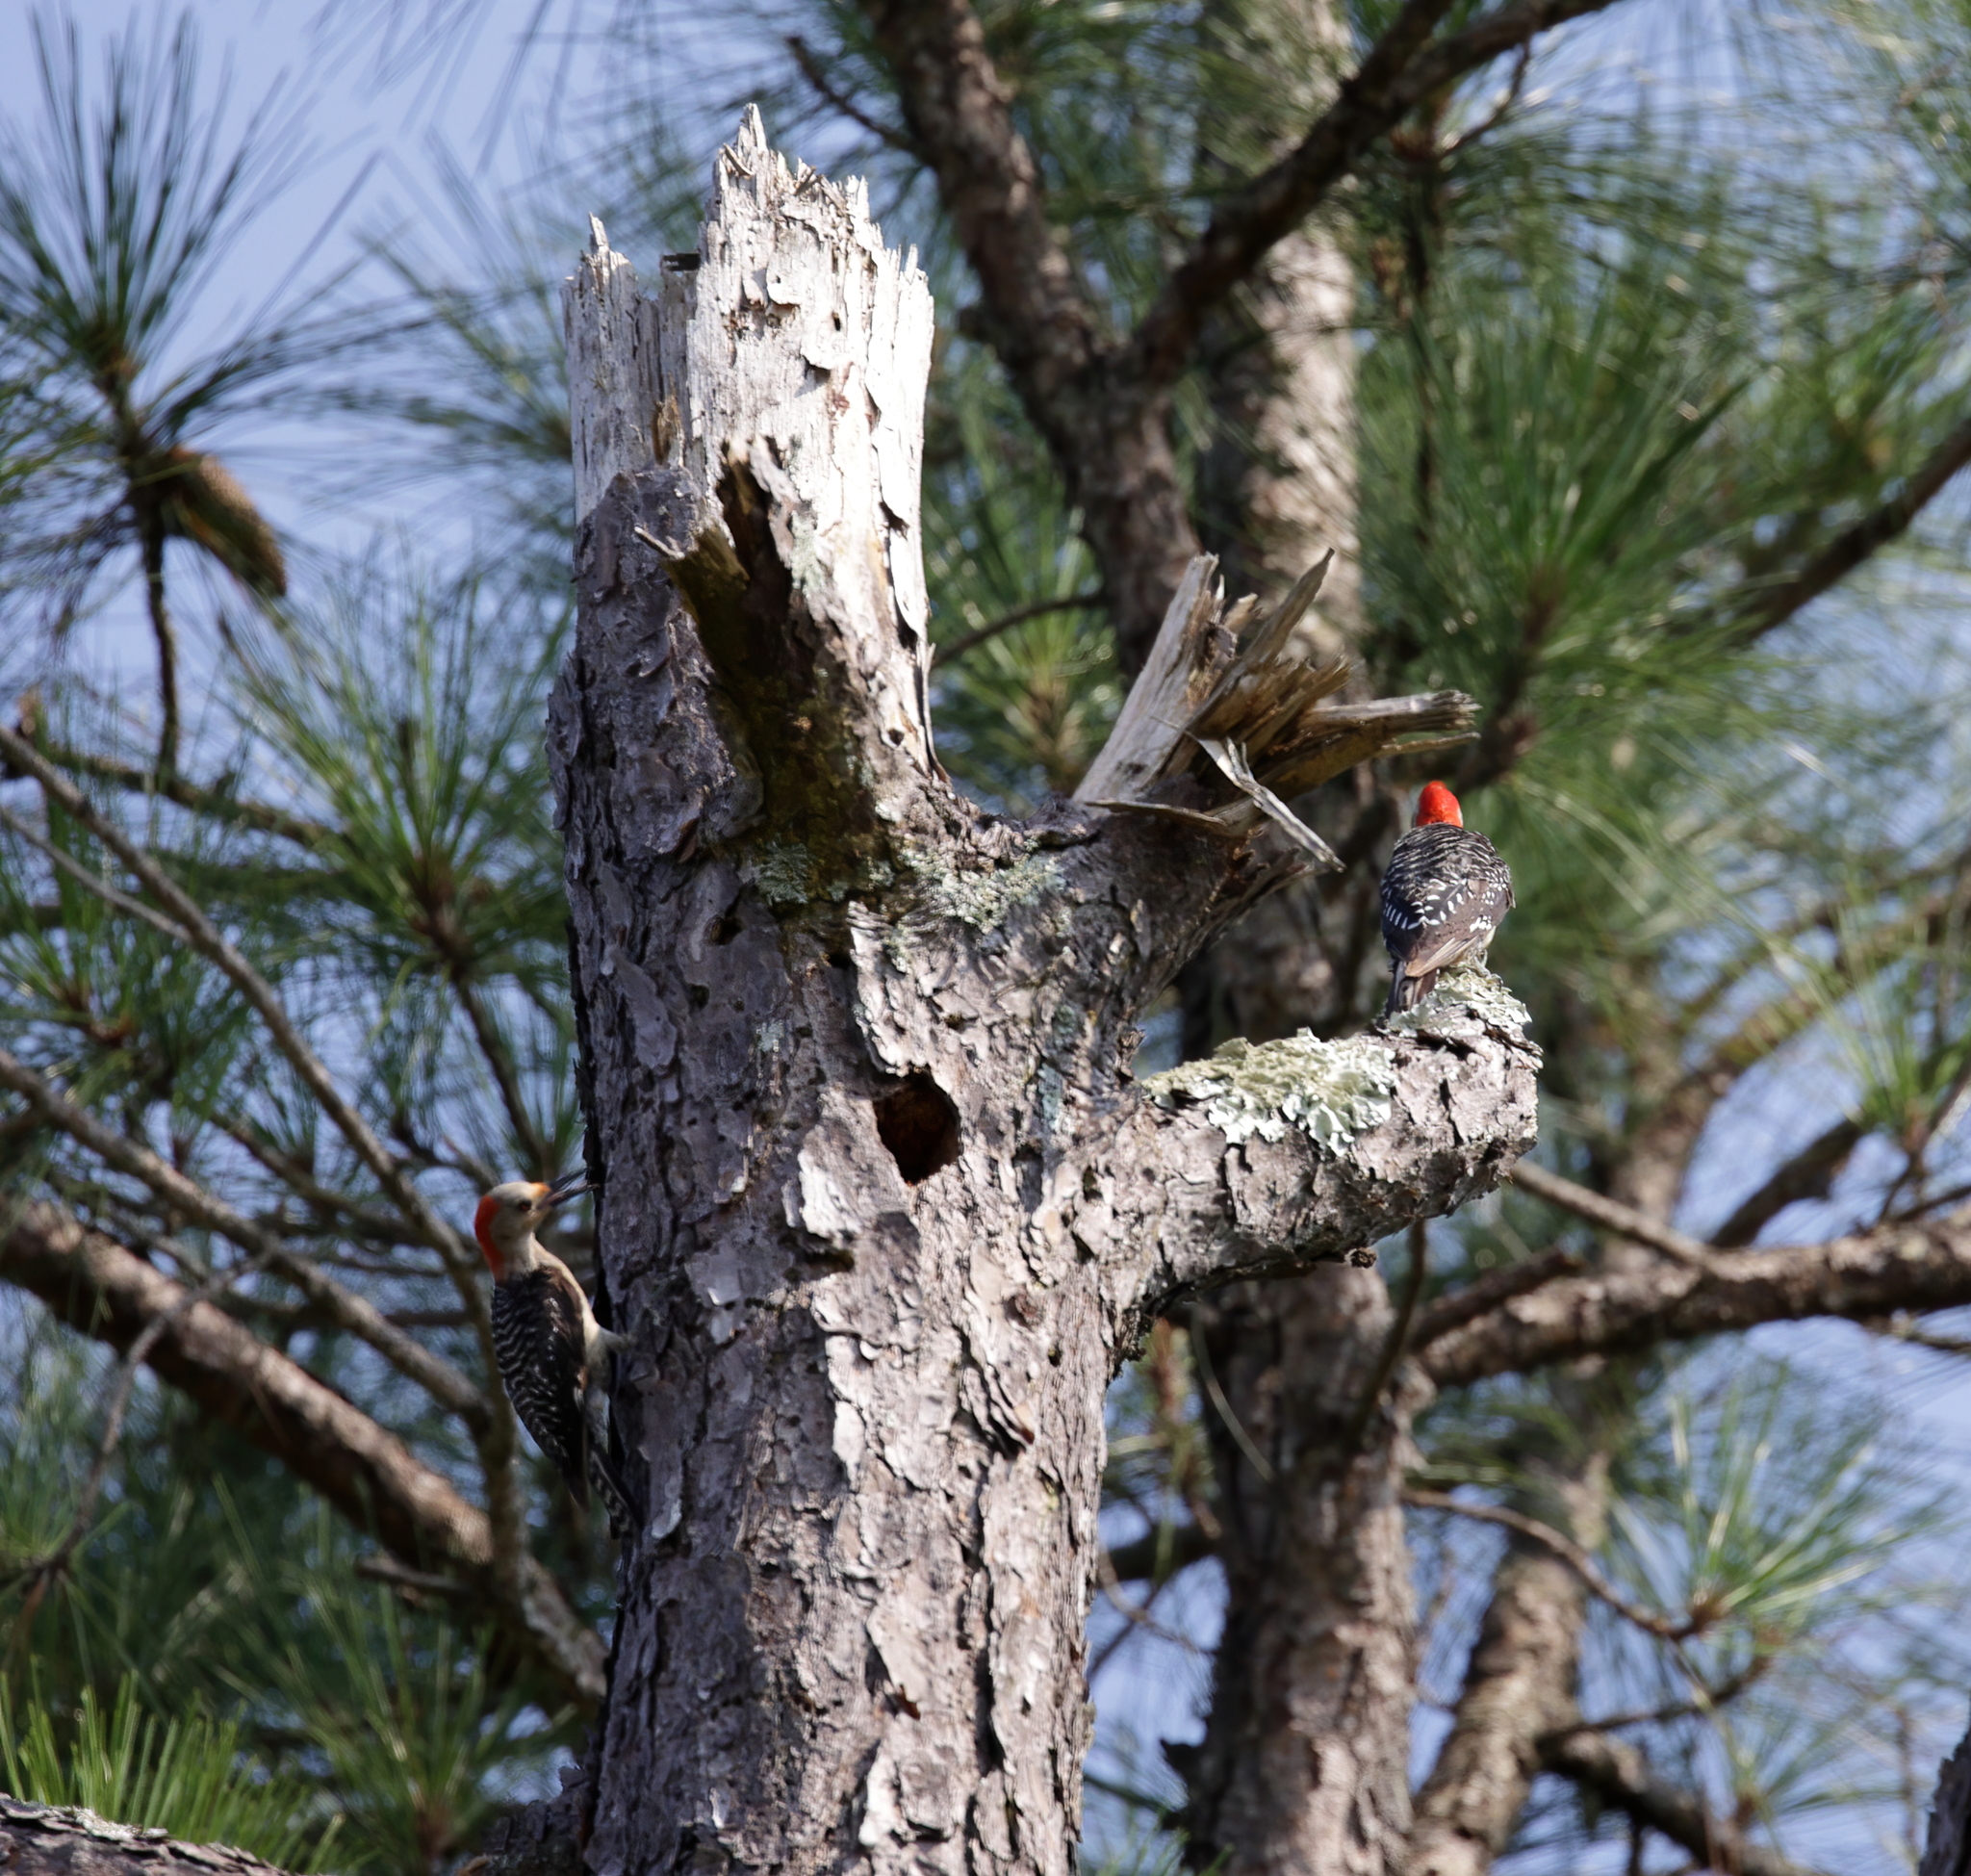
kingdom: Animalia
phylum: Chordata
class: Aves
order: Piciformes
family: Picidae
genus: Melanerpes
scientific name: Melanerpes carolinus
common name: Red-bellied woodpecker
